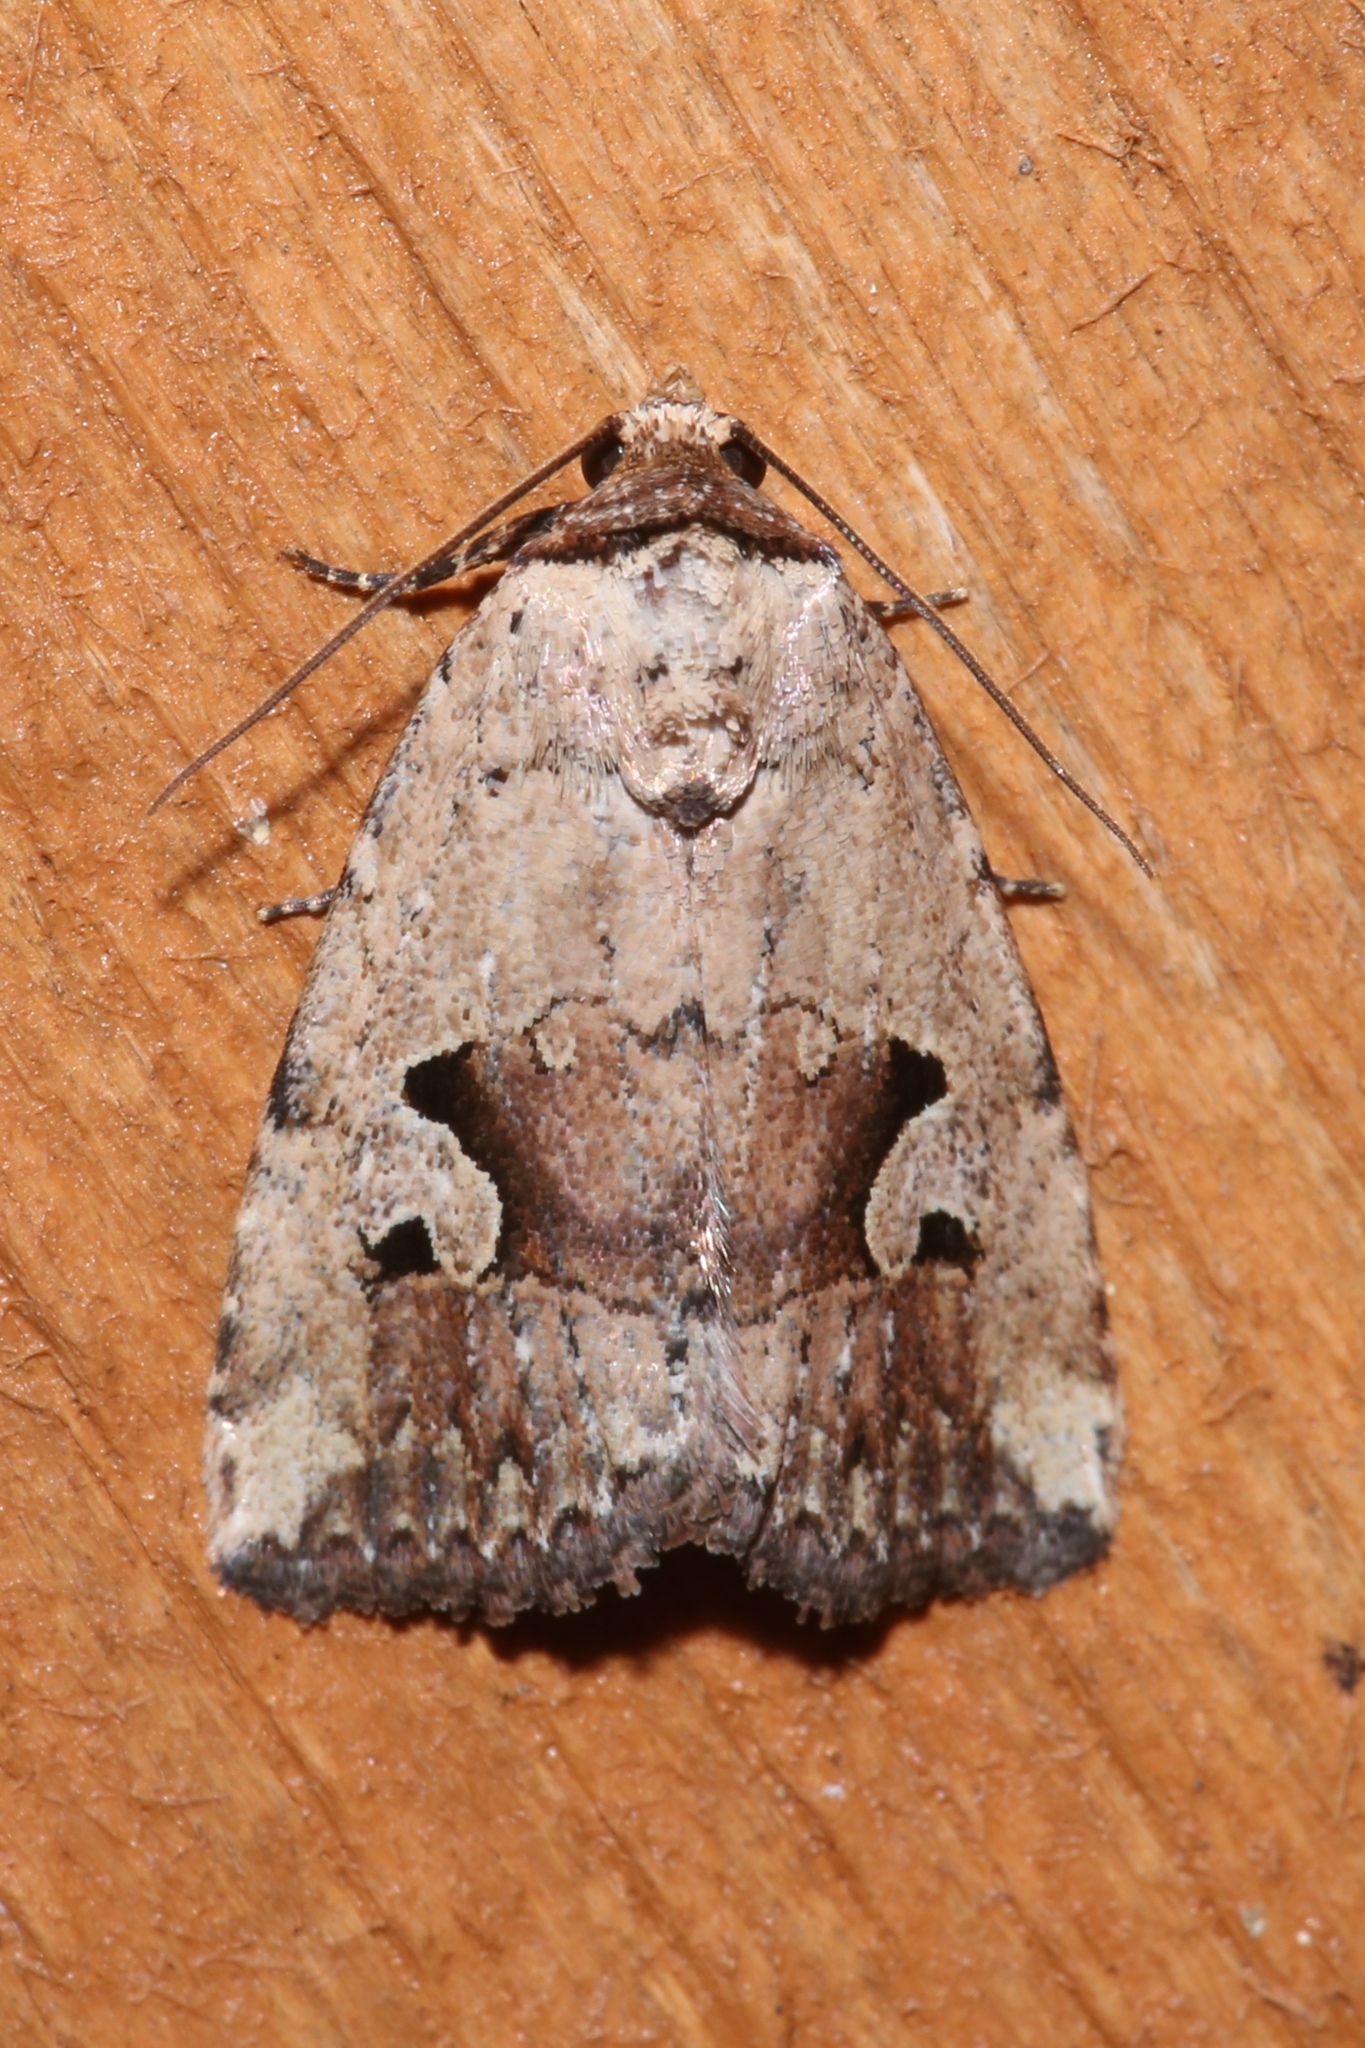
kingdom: Animalia
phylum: Arthropoda
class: Insecta
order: Lepidoptera
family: Noctuidae
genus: Elaphria
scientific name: Elaphria festivoides
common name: Festive midget
